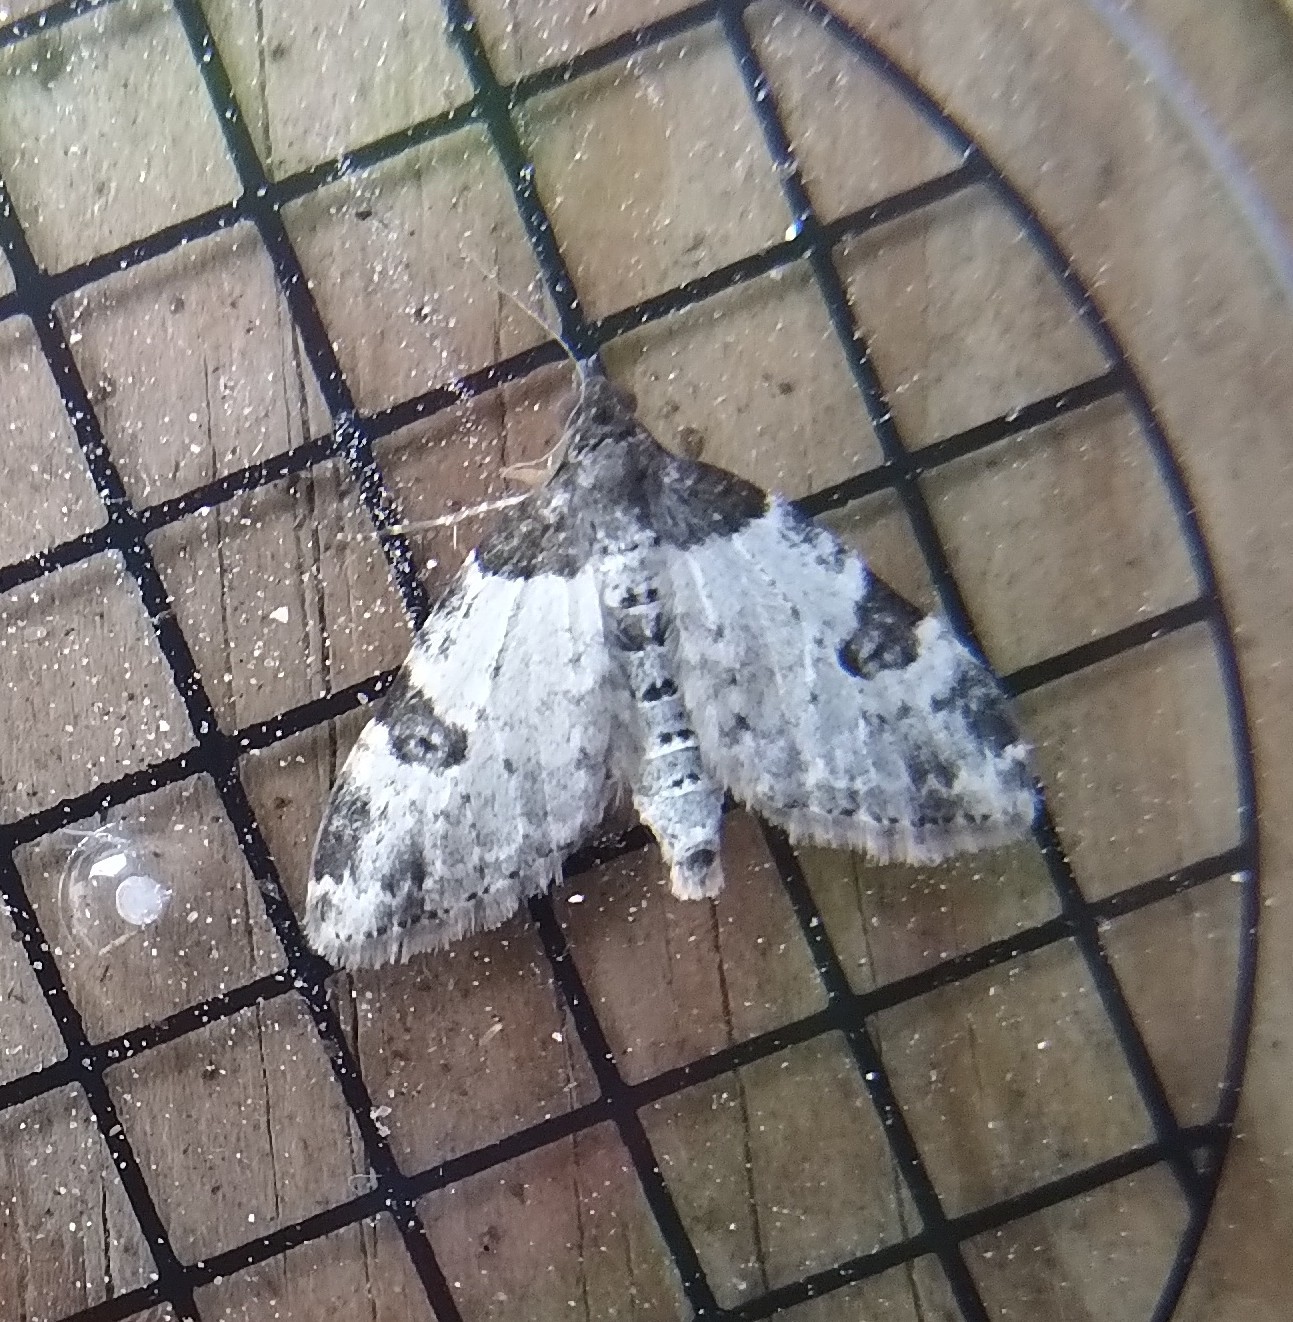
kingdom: Animalia
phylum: Arthropoda
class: Insecta
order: Lepidoptera
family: Geometridae
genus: Xanthorhoe
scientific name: Xanthorhoe fluctuata
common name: Garden carpet
